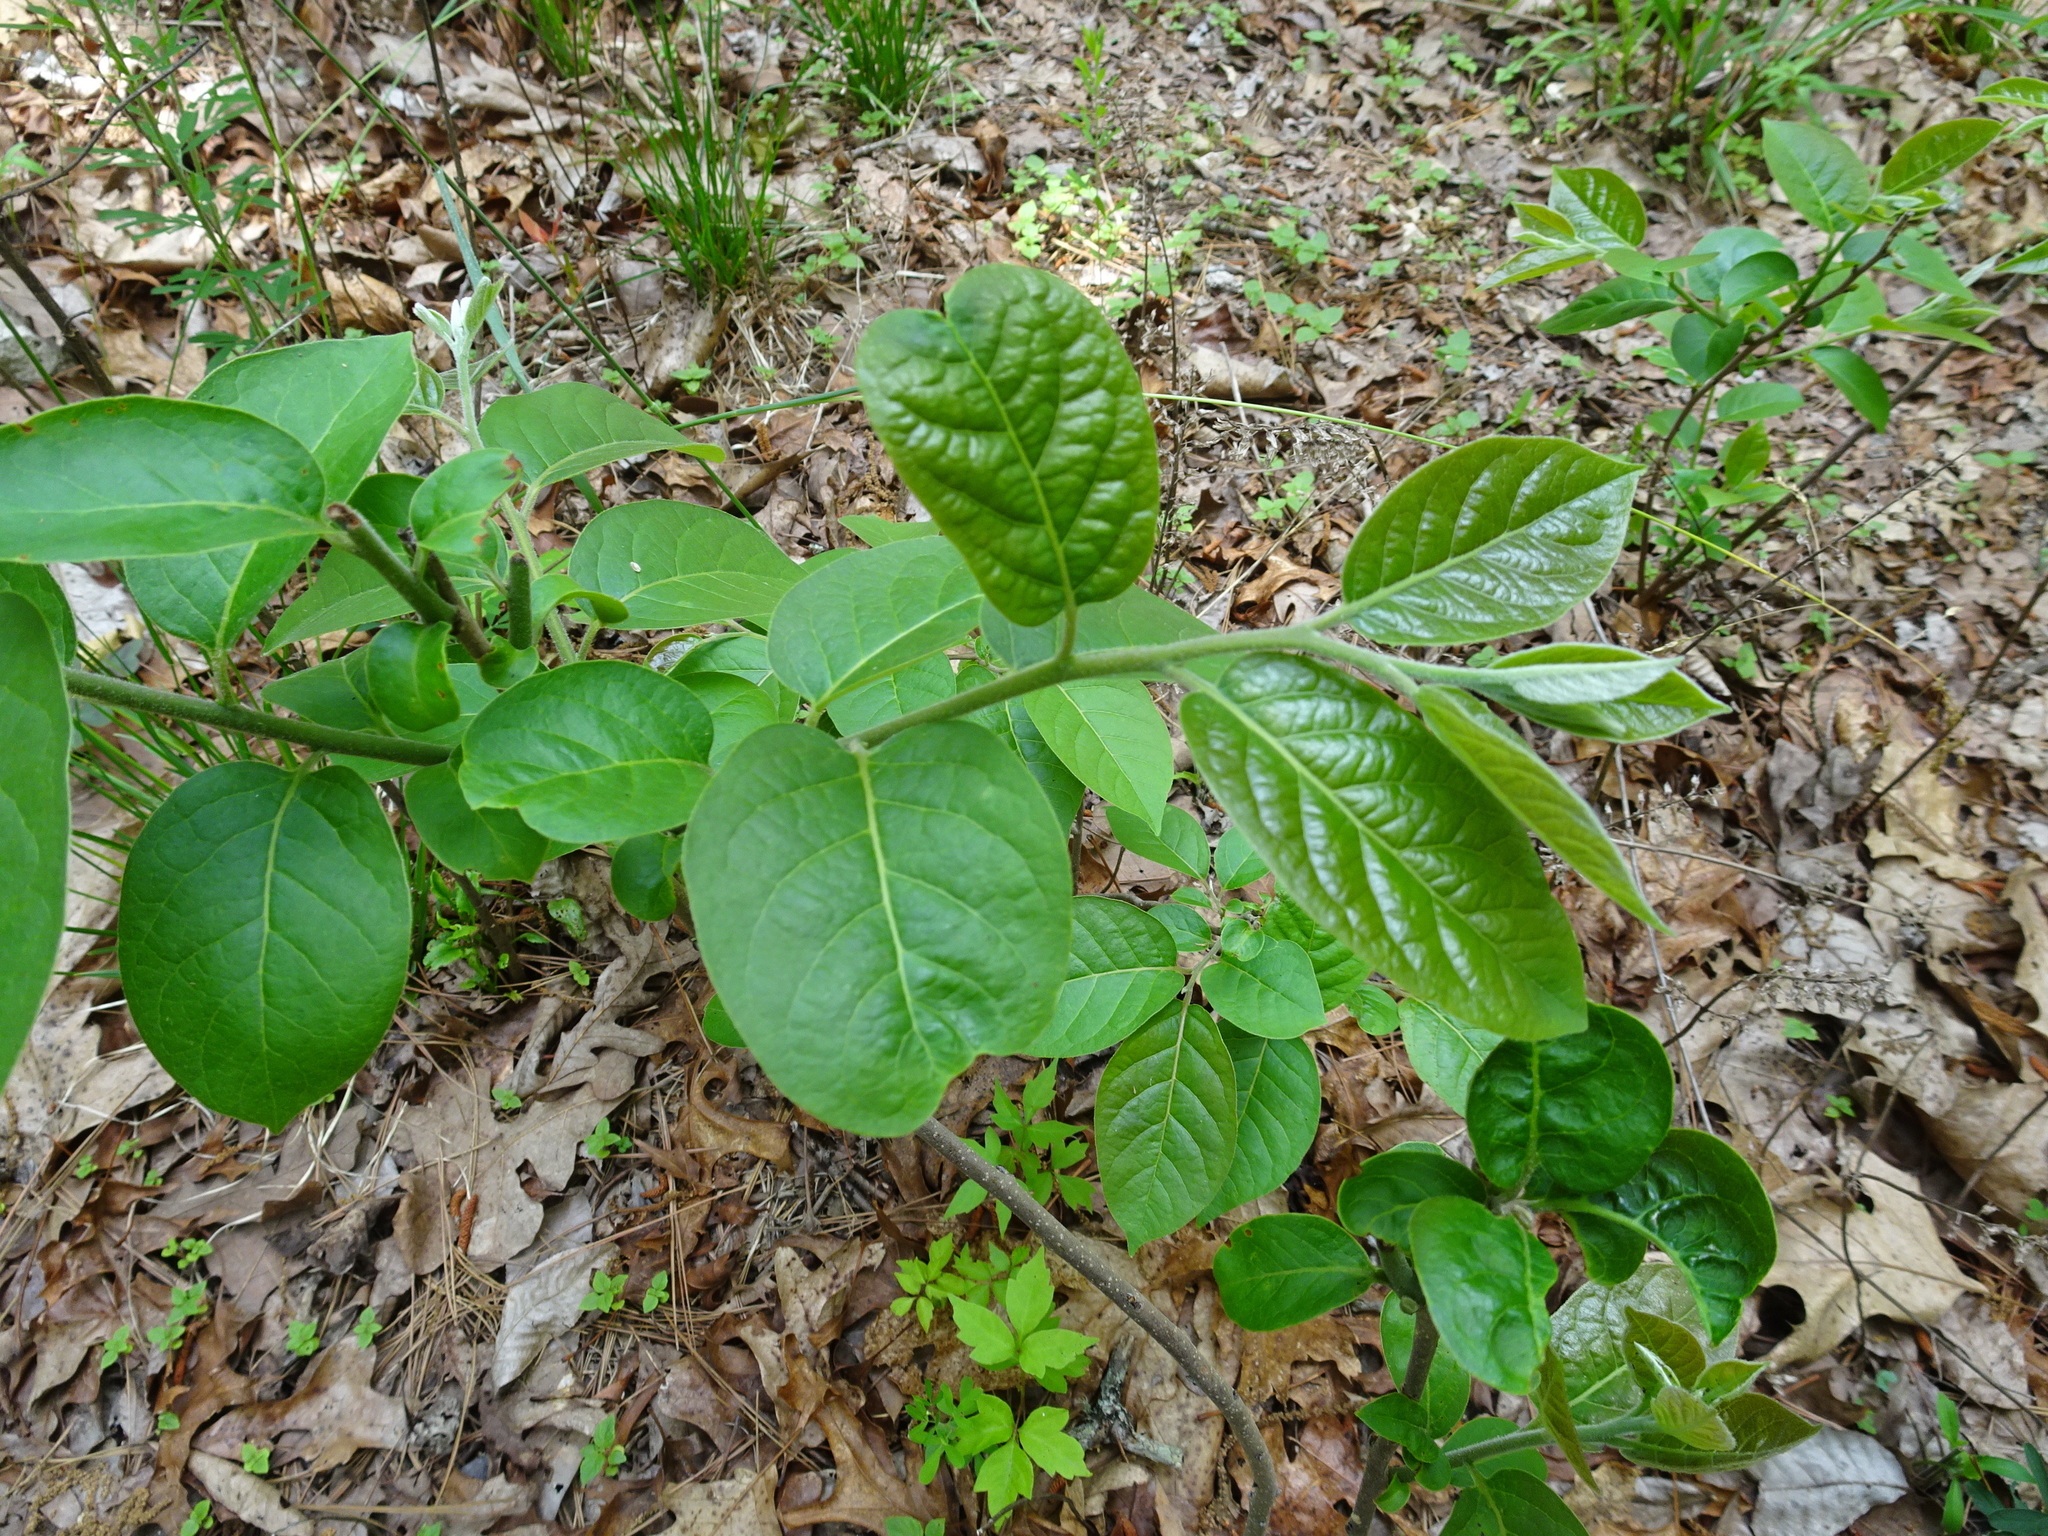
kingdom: Plantae
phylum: Tracheophyta
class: Magnoliopsida
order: Ericales
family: Ebenaceae
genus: Diospyros
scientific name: Diospyros virginiana
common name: Persimmon
